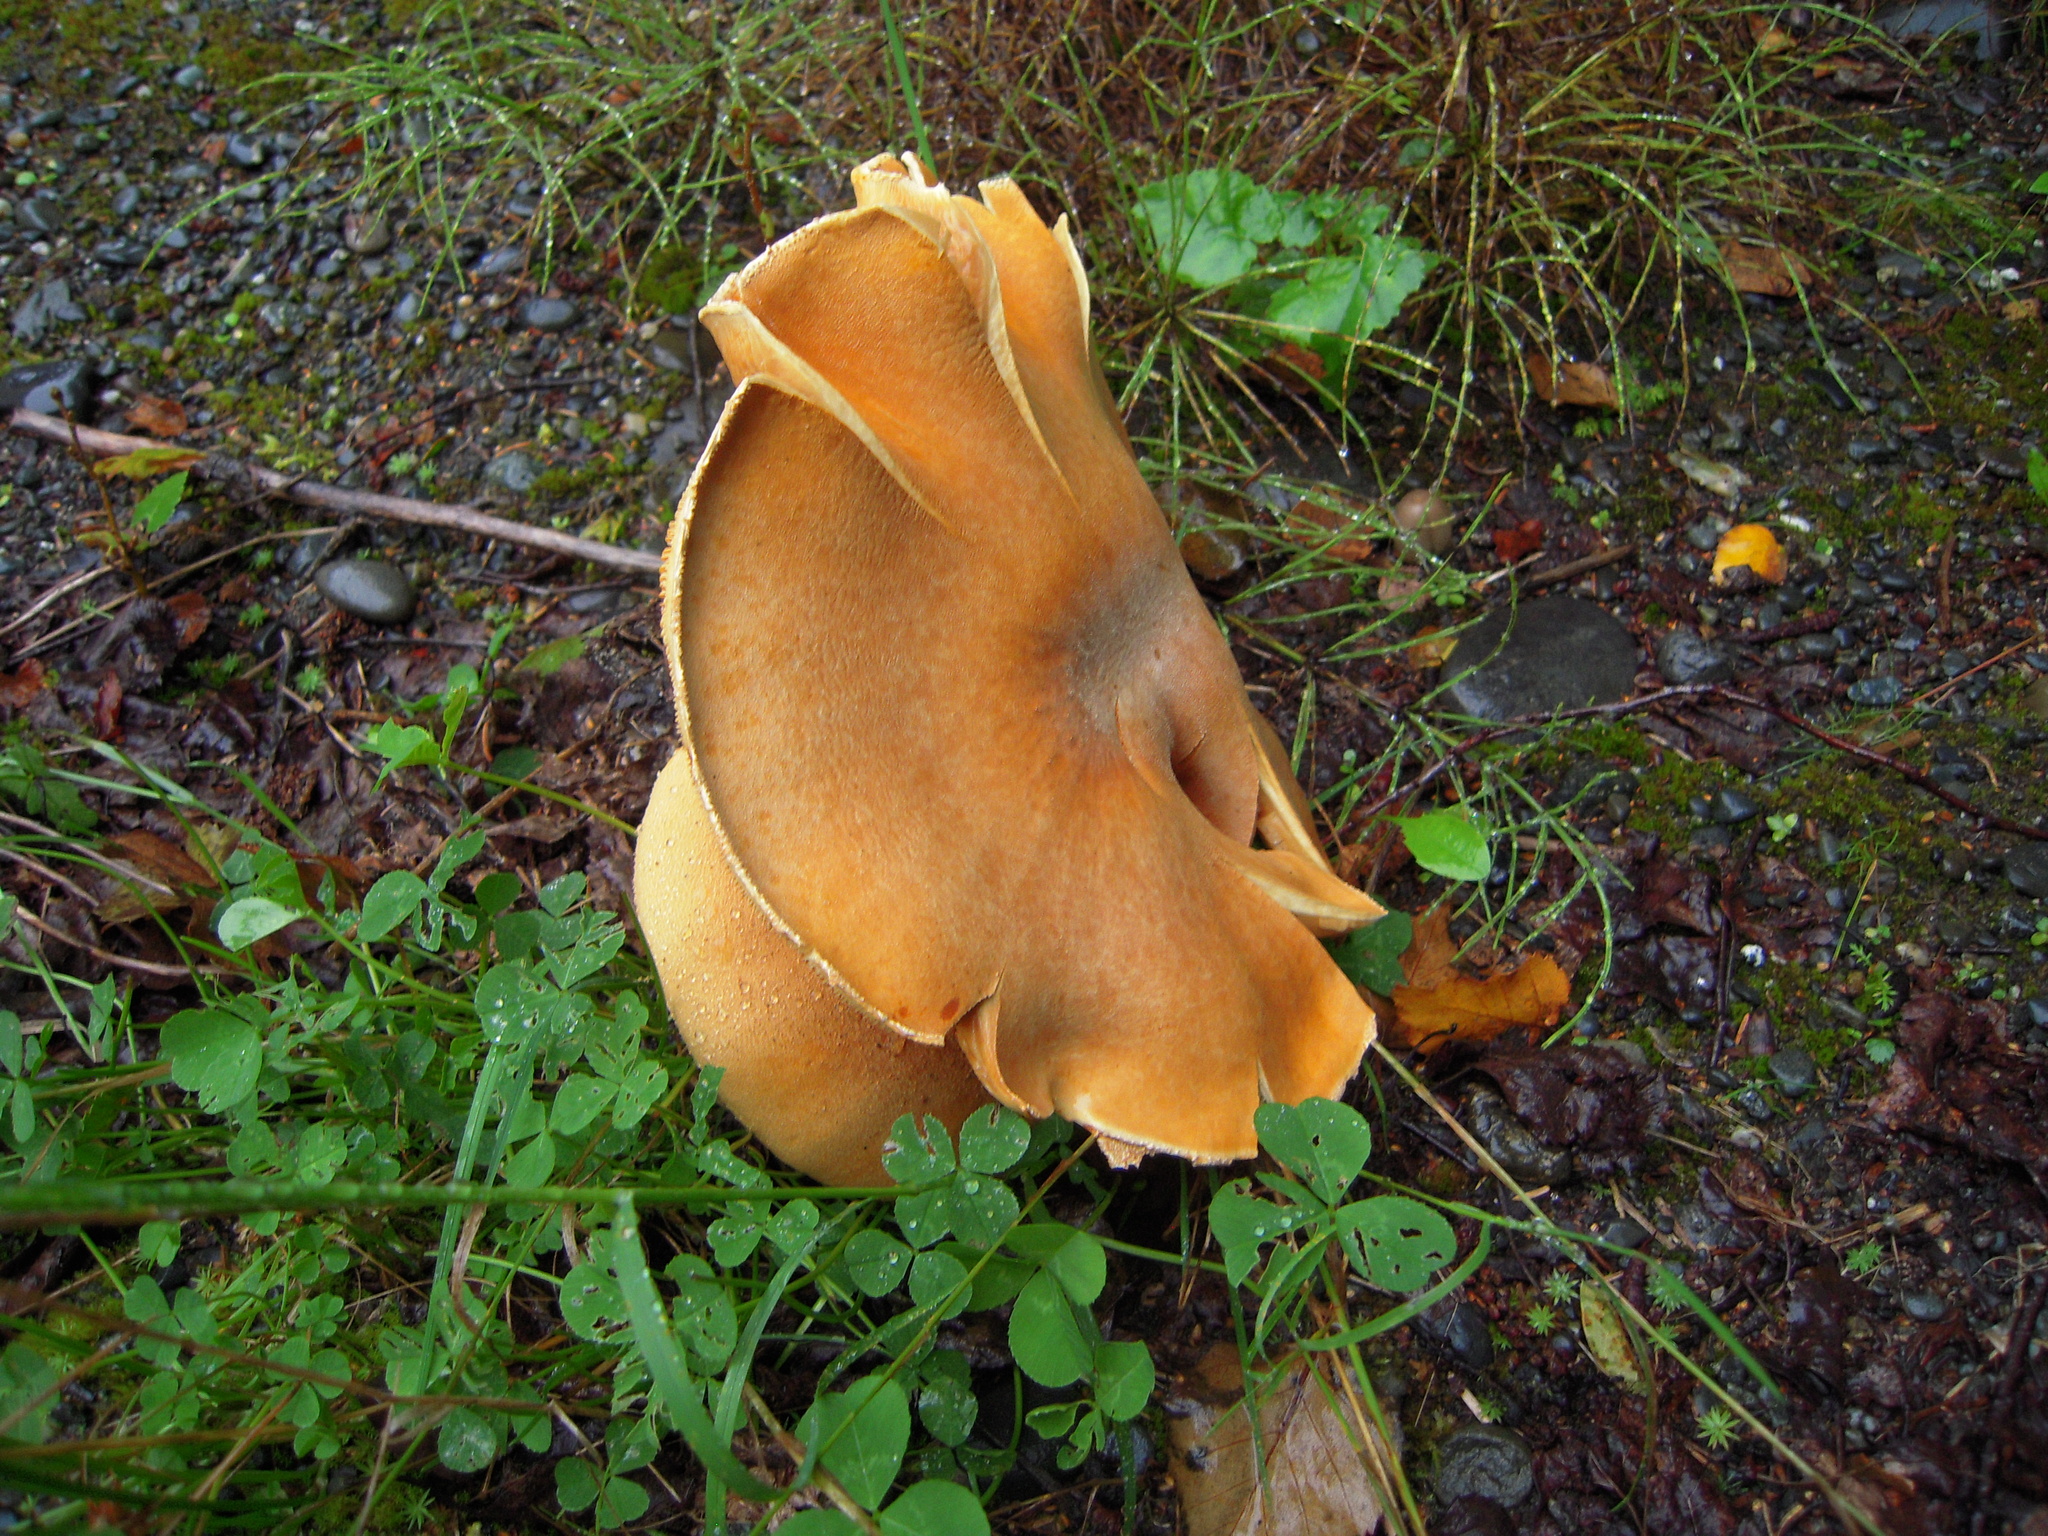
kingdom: Fungi
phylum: Basidiomycota
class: Agaricomycetes
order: Agaricales
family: Tricholomataceae
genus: Phaeolepiota
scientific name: Phaeolepiota aurea
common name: Golden bootleg
